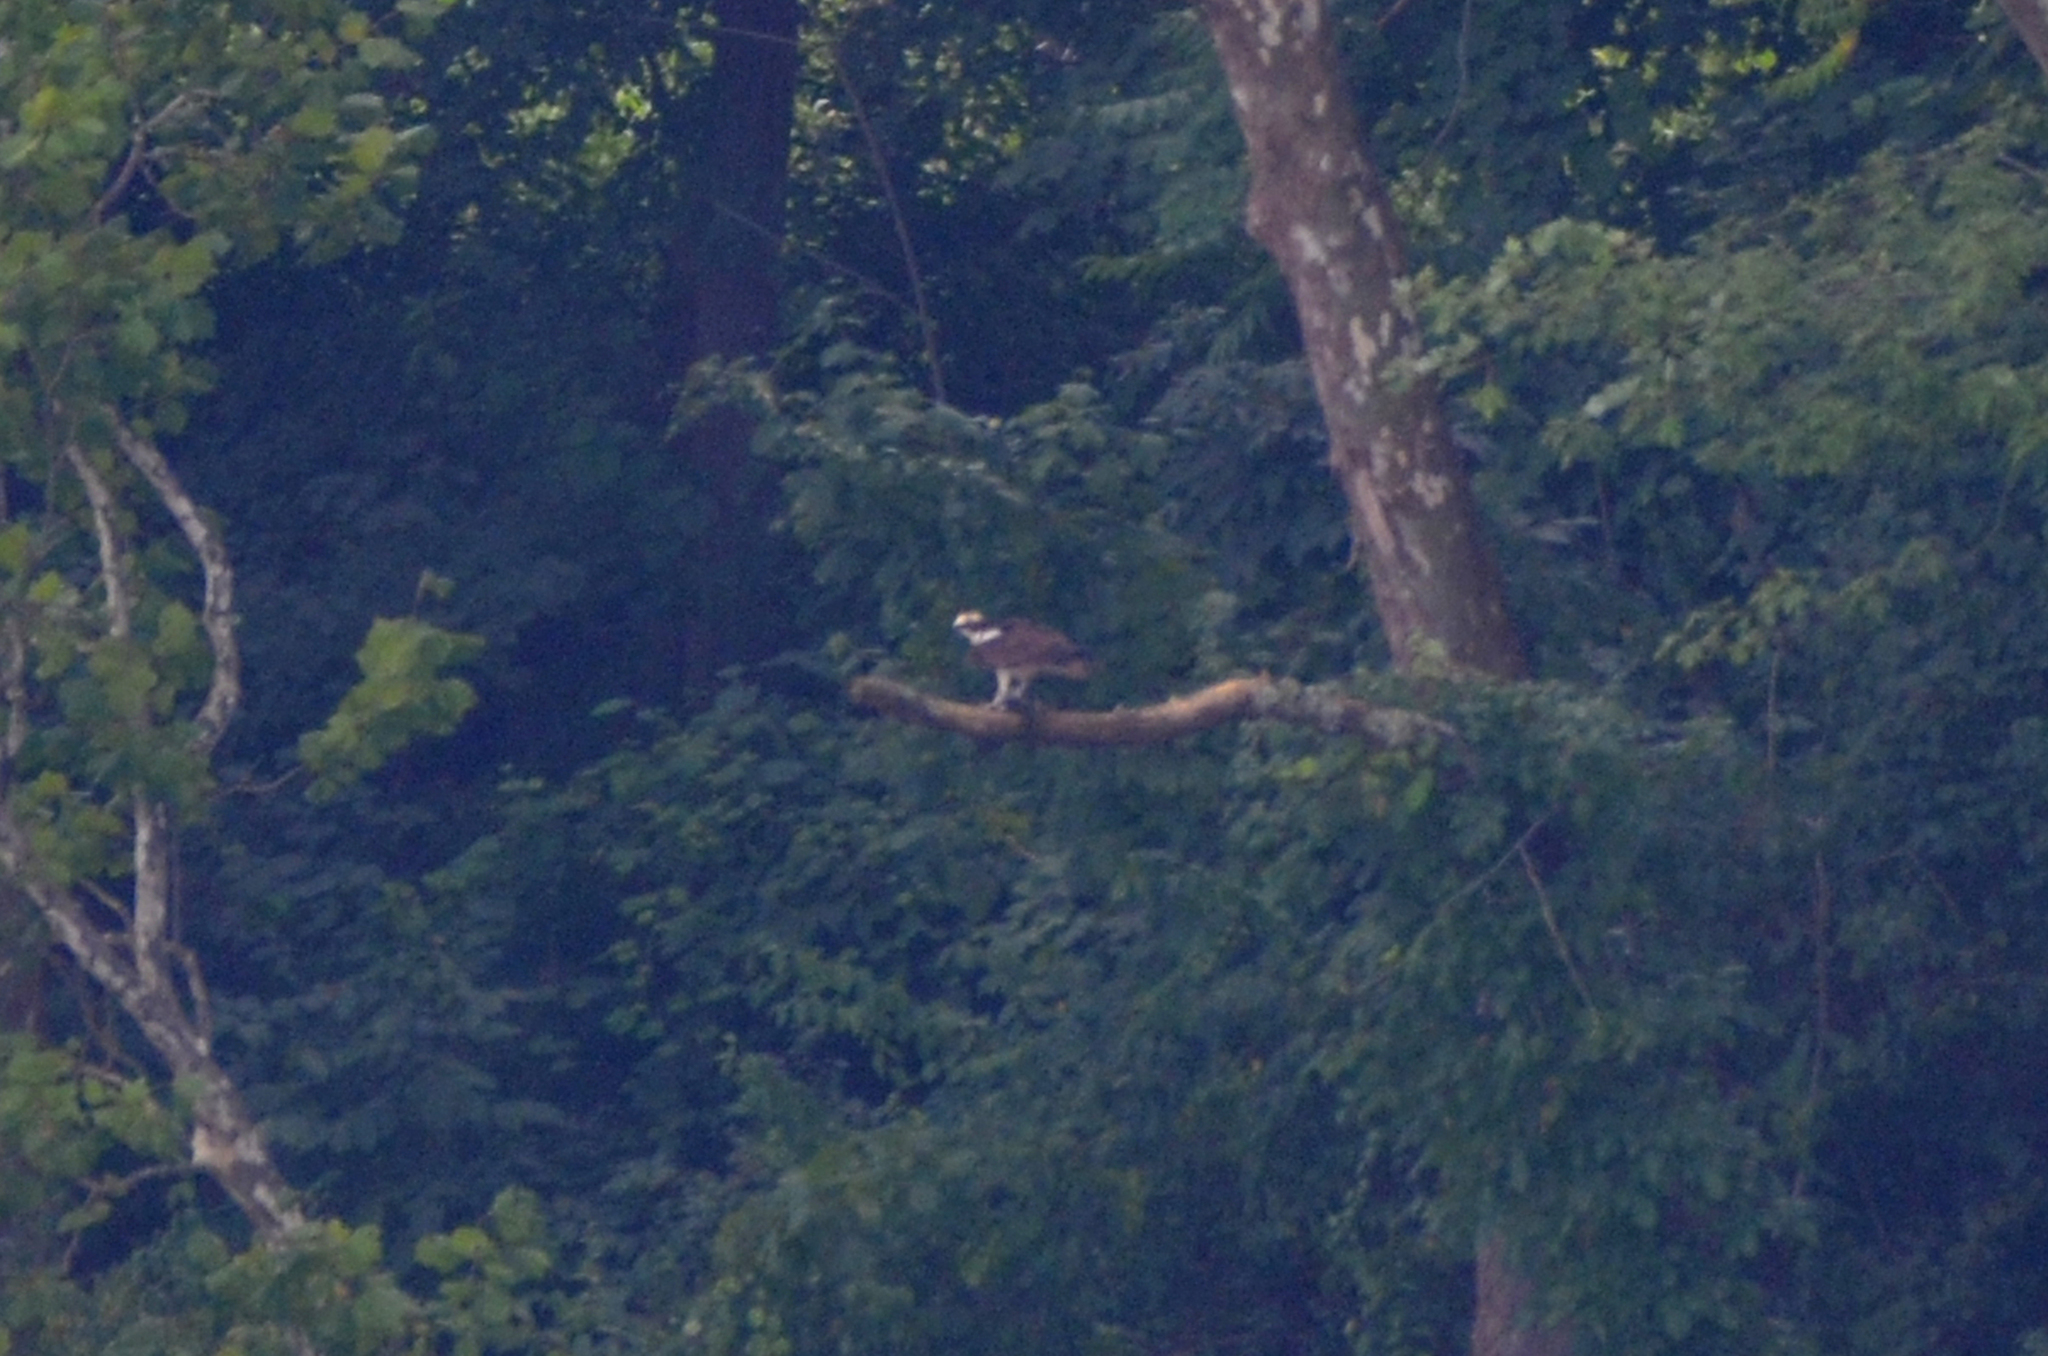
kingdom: Animalia
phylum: Chordata
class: Aves
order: Accipitriformes
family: Pandionidae
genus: Pandion
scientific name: Pandion haliaetus
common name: Osprey
